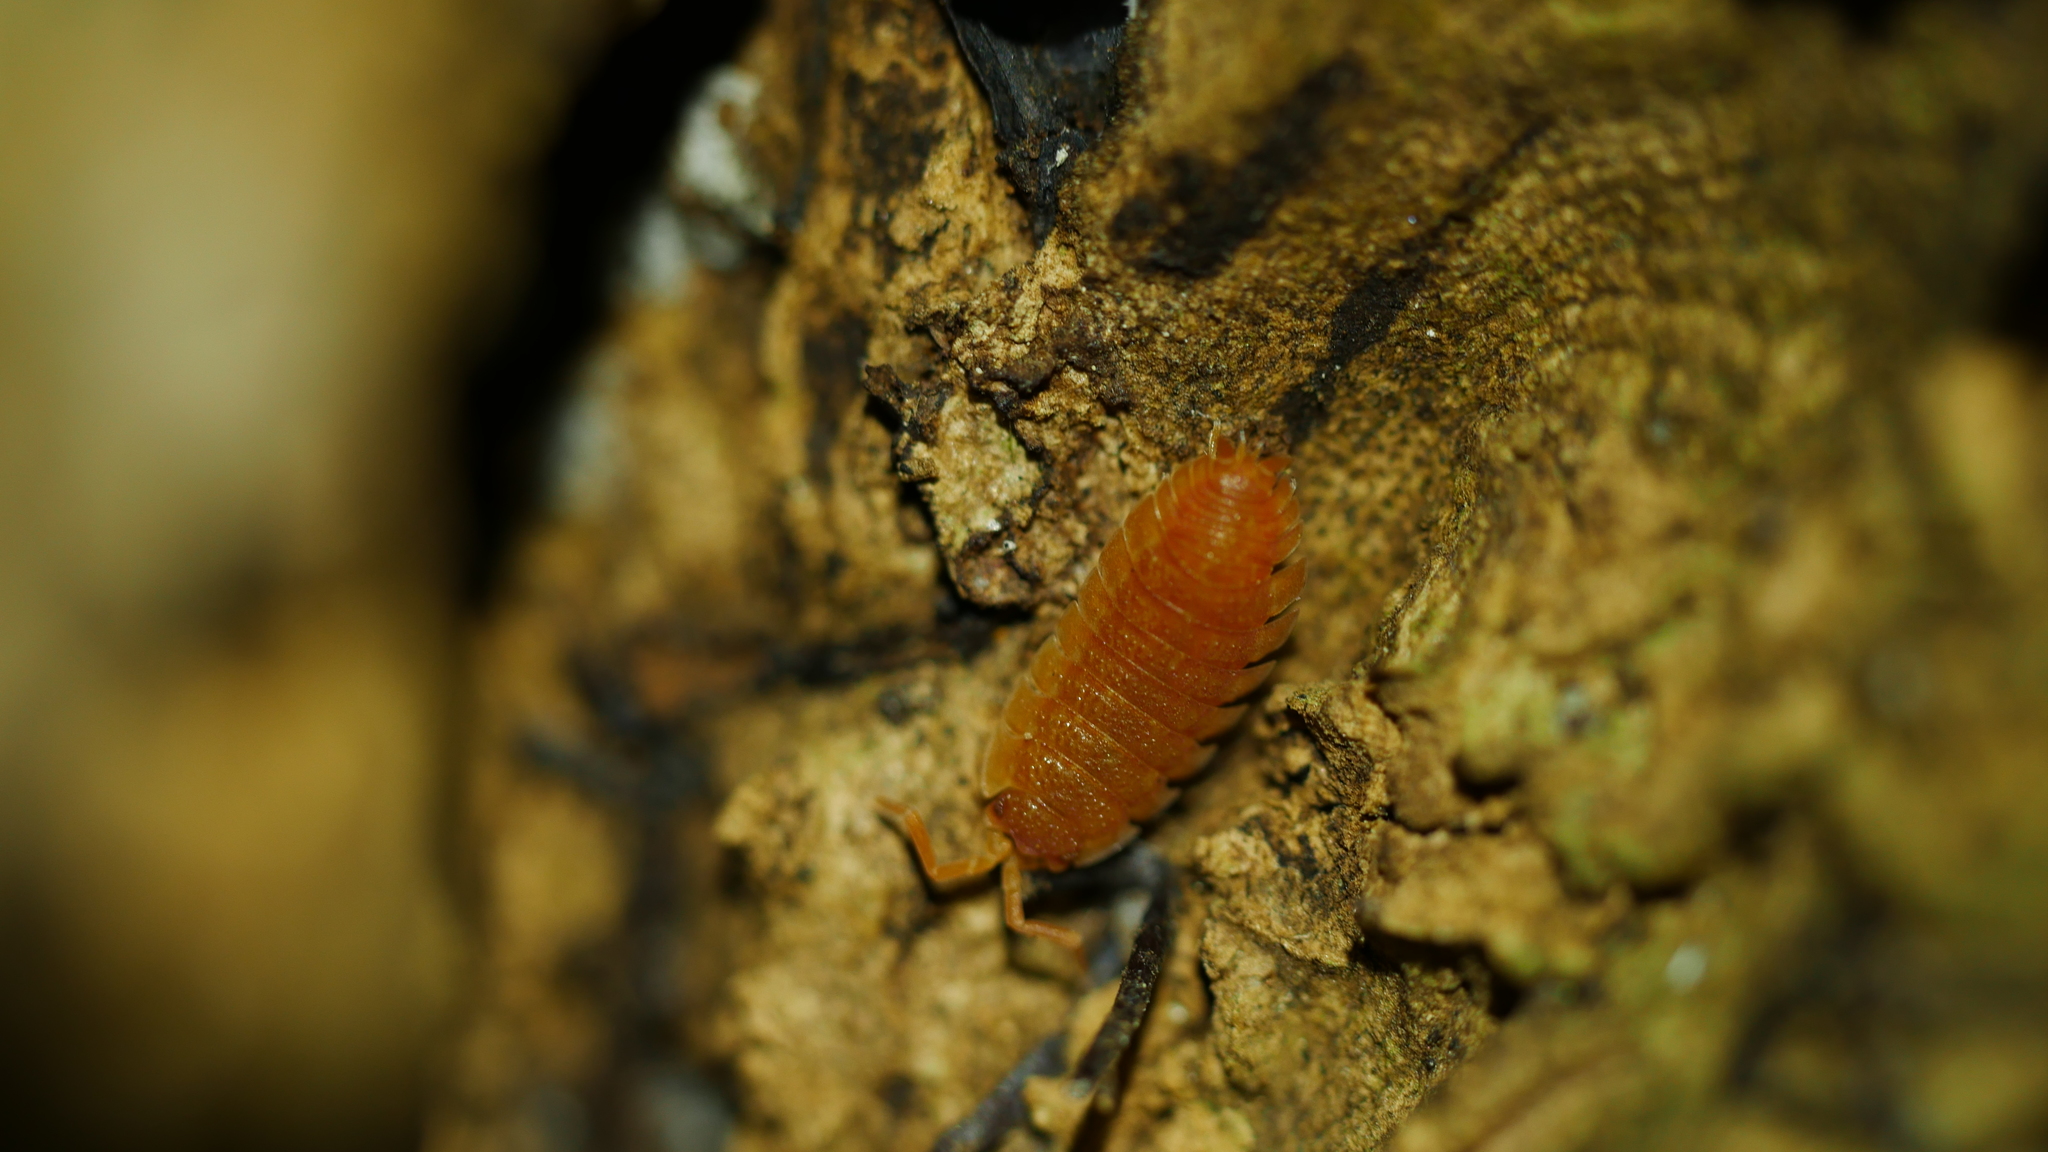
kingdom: Animalia
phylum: Arthropoda
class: Malacostraca
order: Isopoda
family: Porcellionidae
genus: Porcellio
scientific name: Porcellio scaber
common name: Common rough woodlouse
